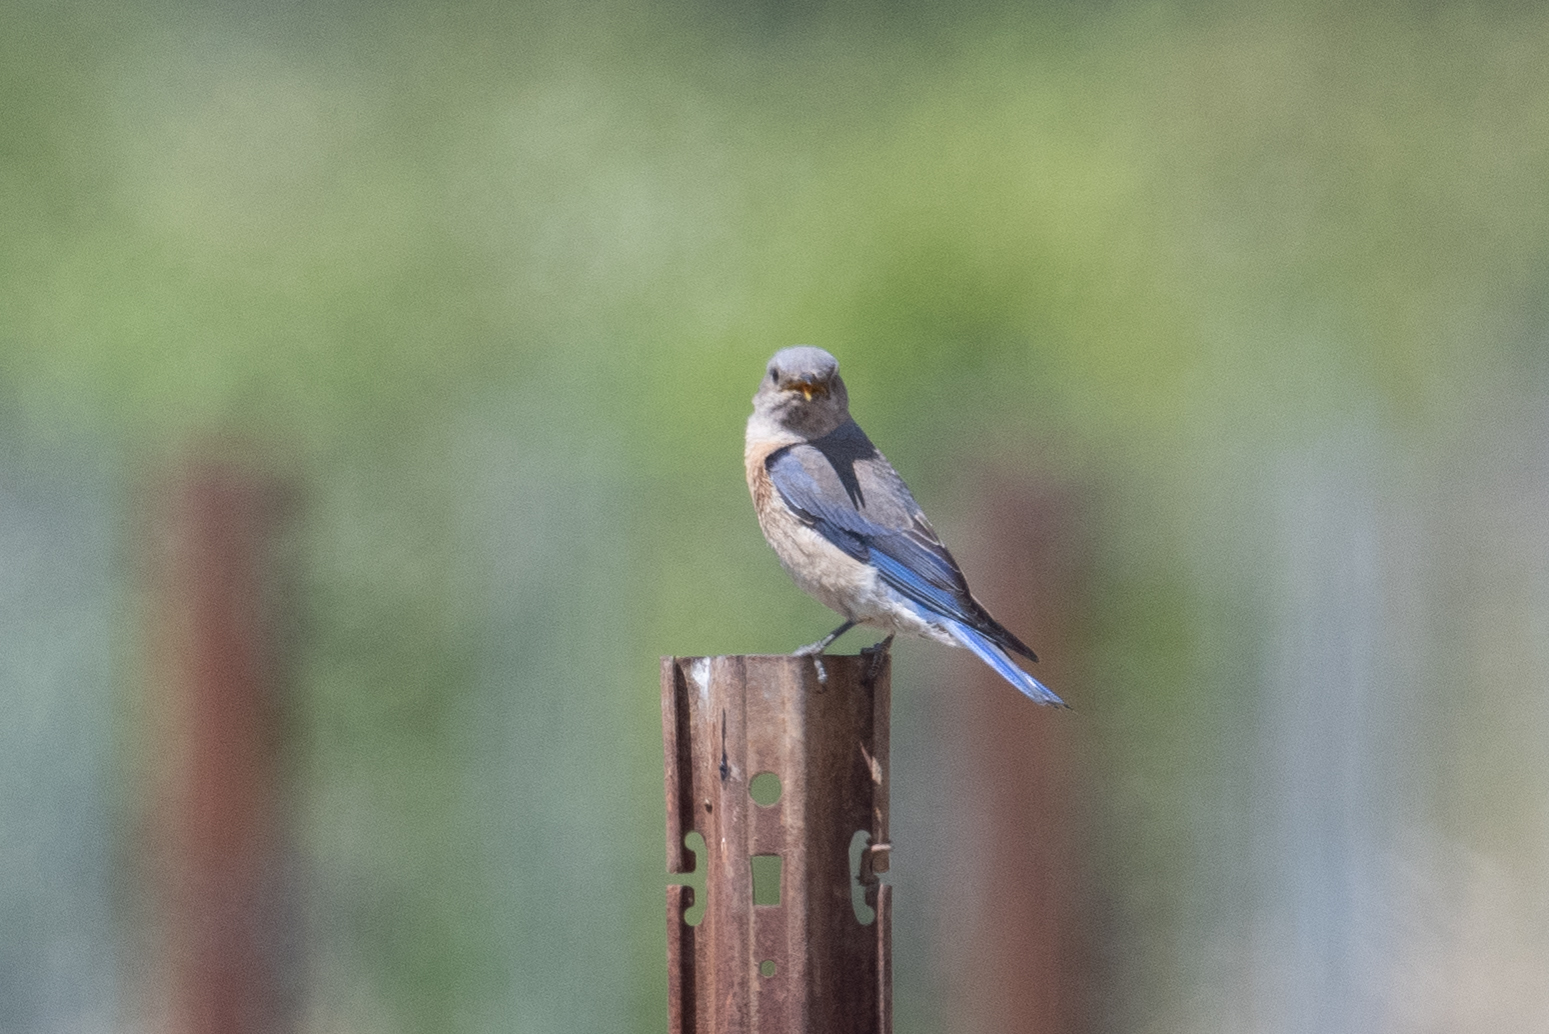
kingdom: Animalia
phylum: Chordata
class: Aves
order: Passeriformes
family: Turdidae
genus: Sialia
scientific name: Sialia mexicana
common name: Western bluebird
